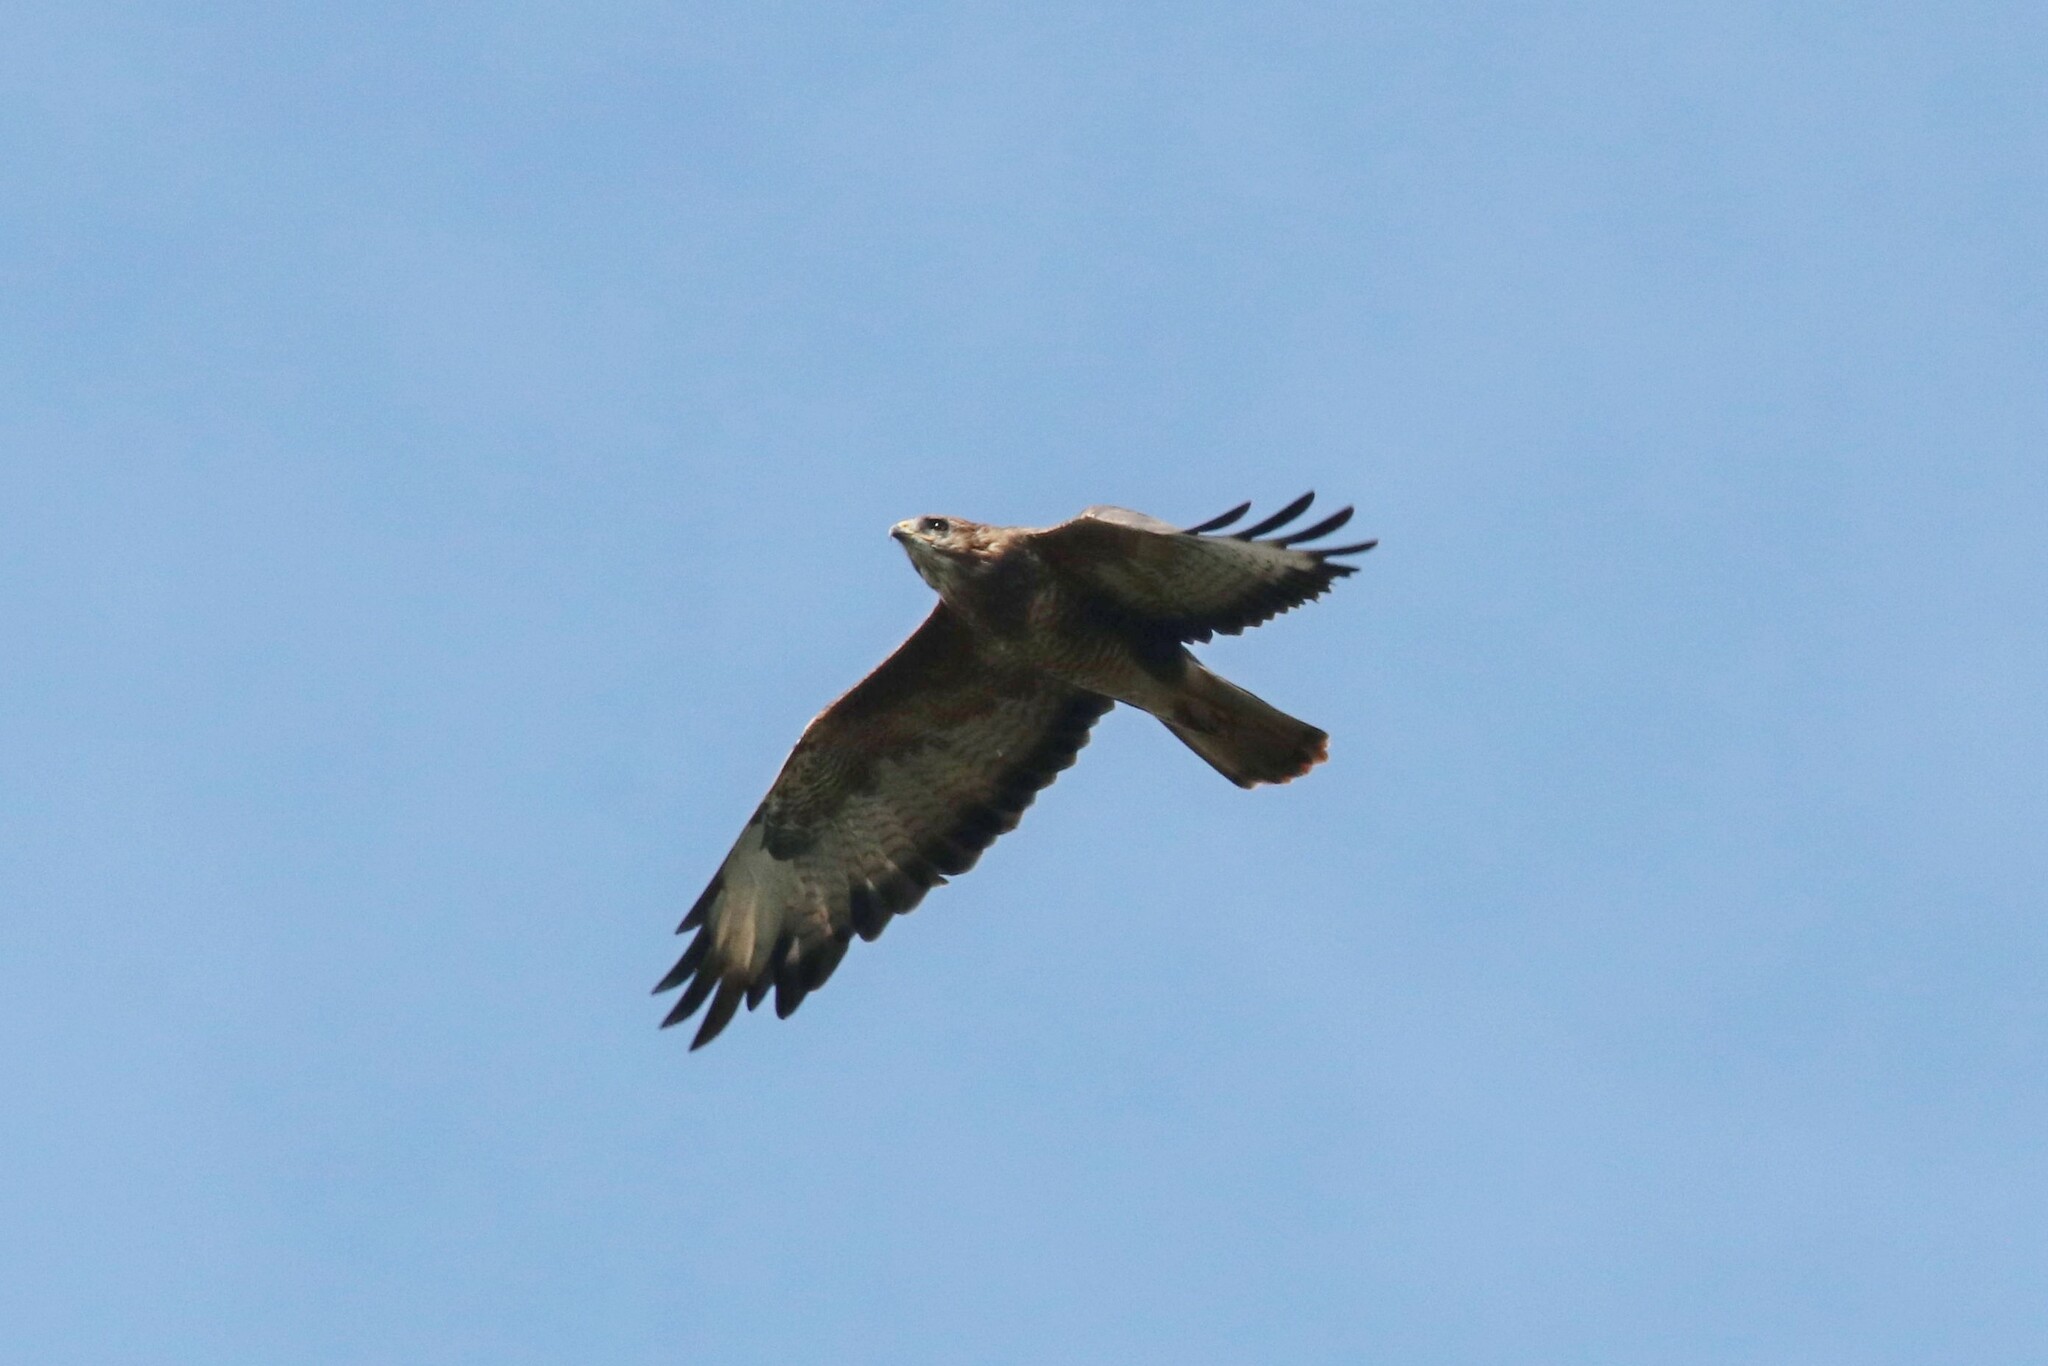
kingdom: Animalia
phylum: Chordata
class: Aves
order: Accipitriformes
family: Accipitridae
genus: Buteo
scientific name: Buteo buteo
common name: Common buzzard
